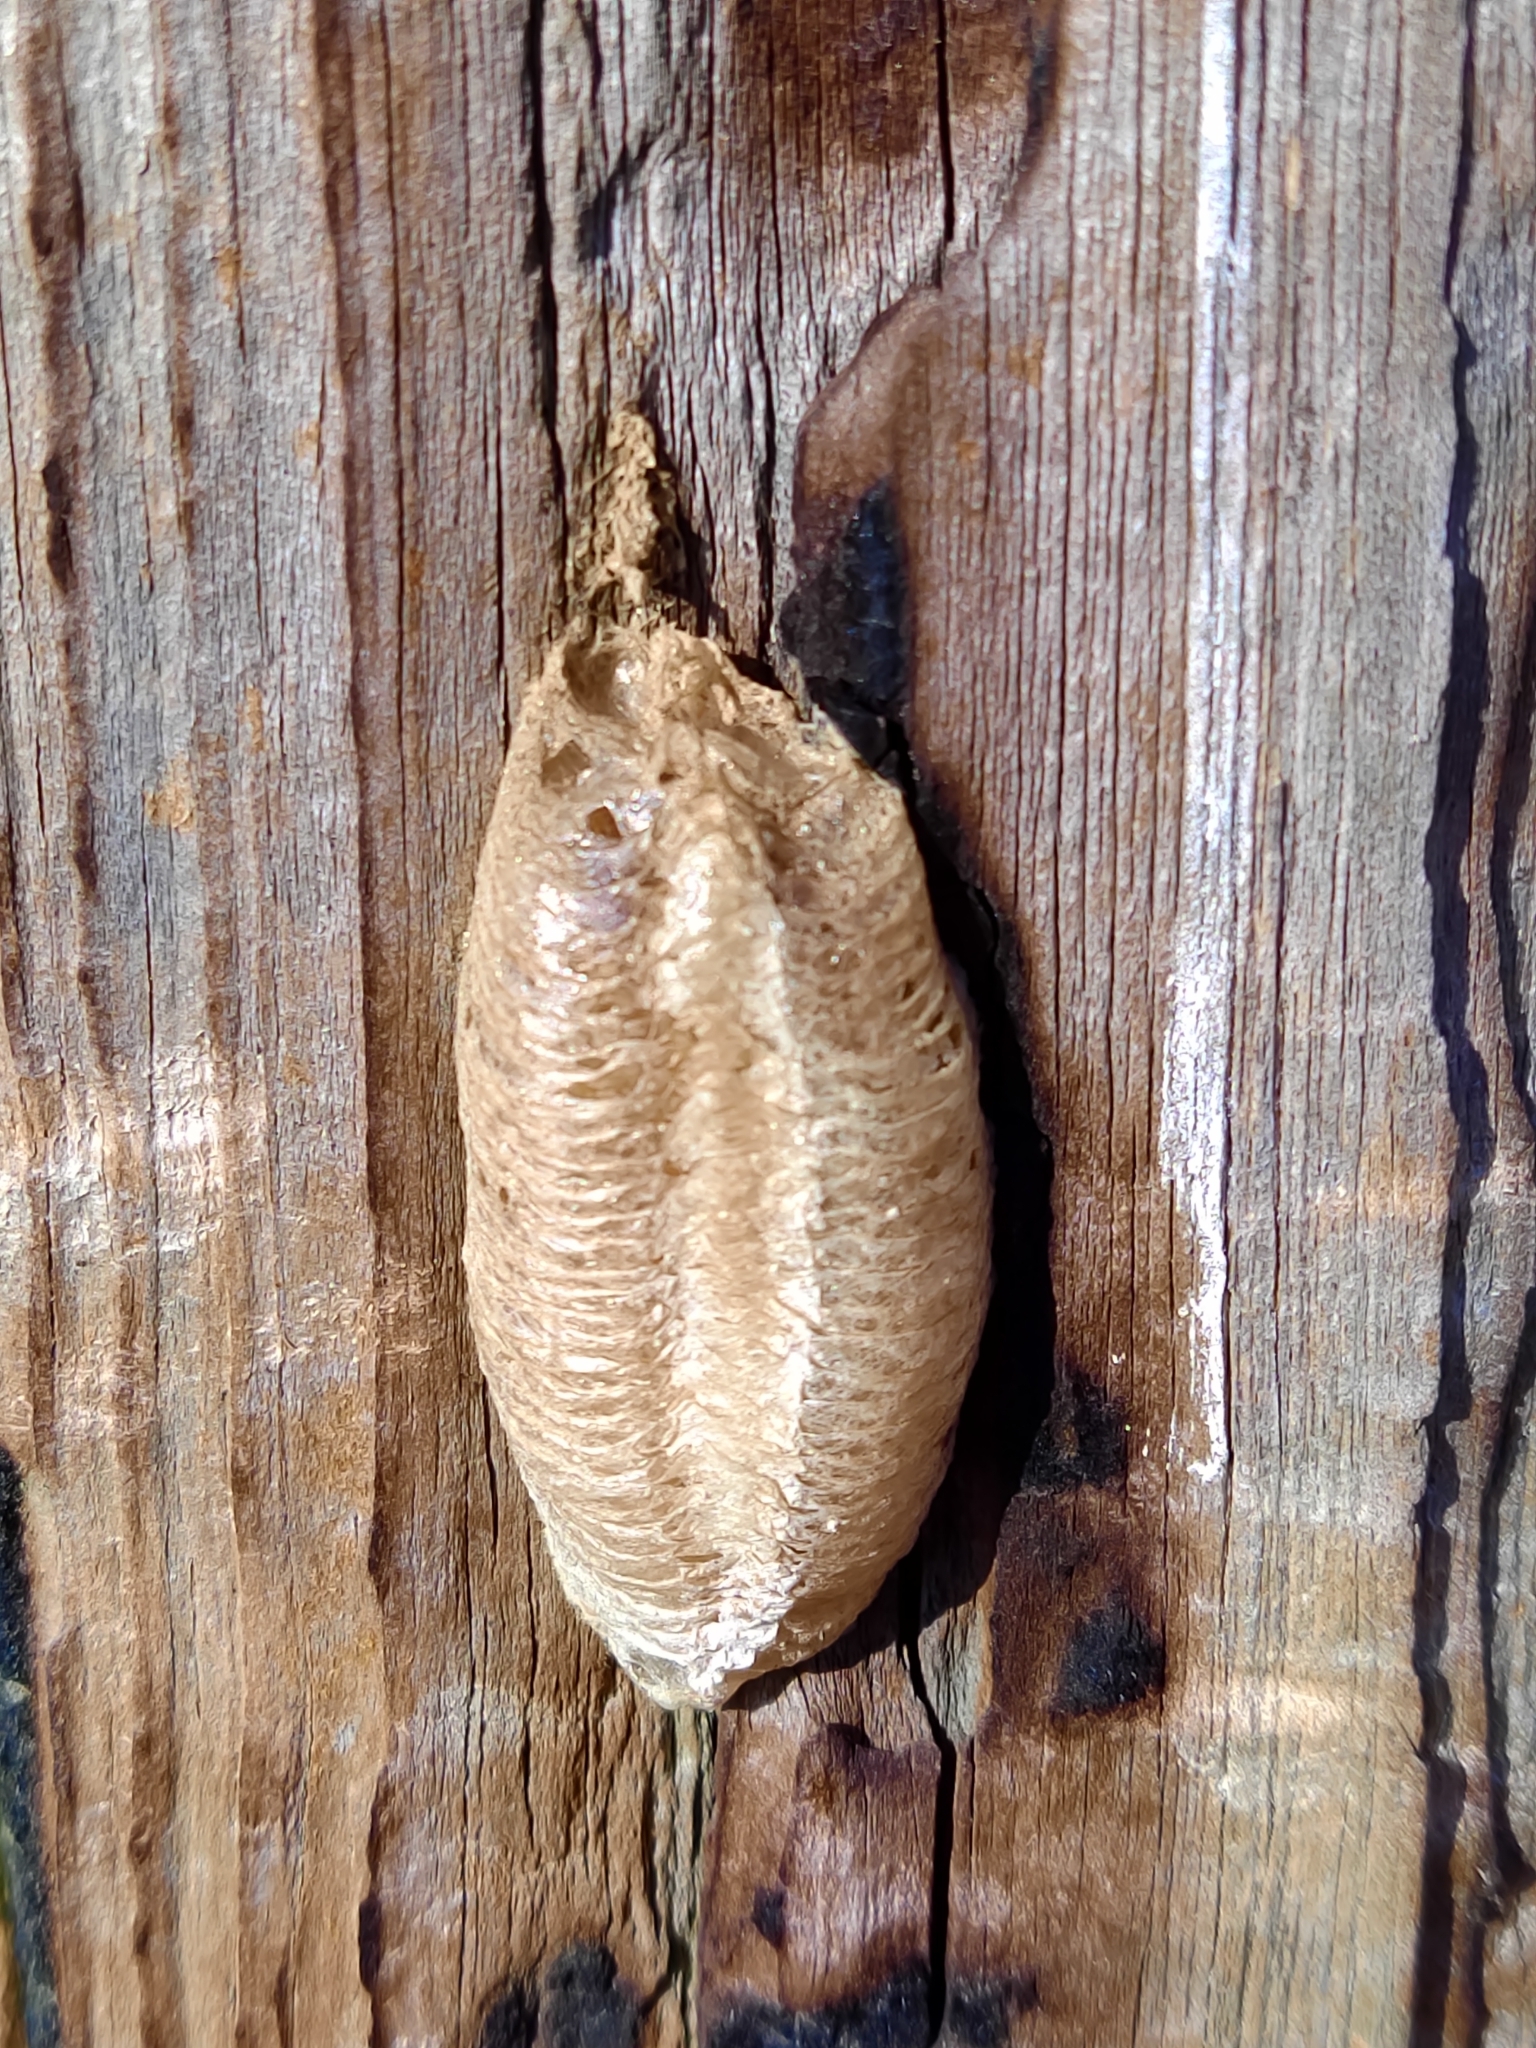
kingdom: Animalia
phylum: Arthropoda
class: Insecta
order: Mantodea
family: Mantidae
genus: Mantis
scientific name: Mantis religiosa
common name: Praying mantis
